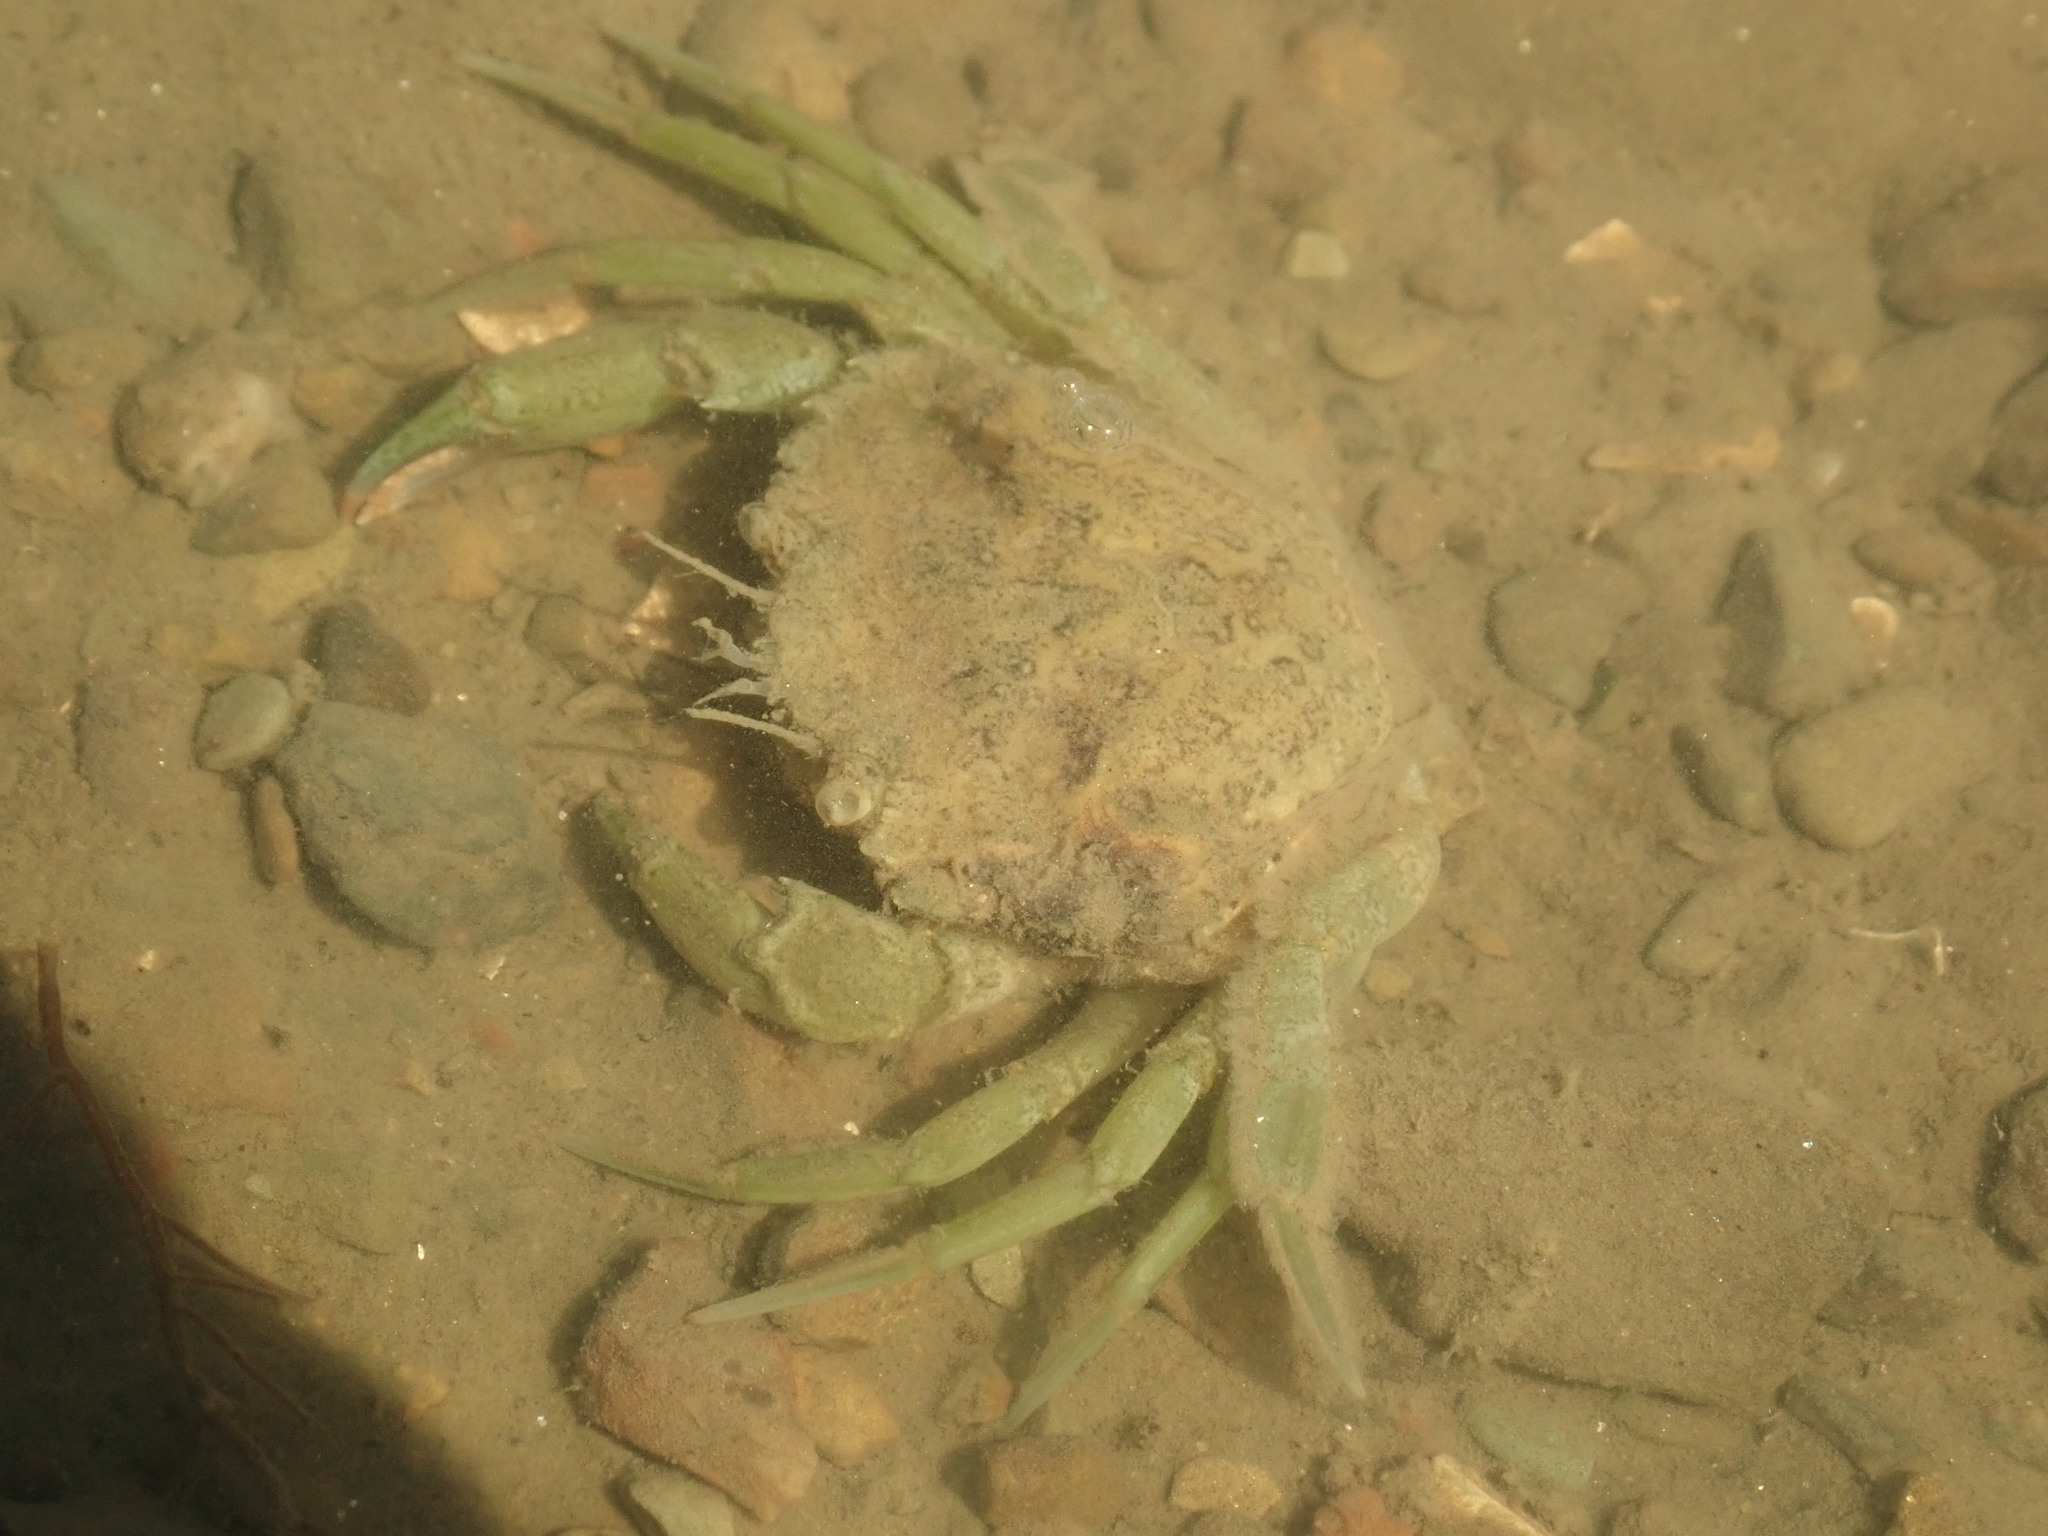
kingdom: Animalia
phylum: Arthropoda
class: Malacostraca
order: Decapoda
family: Carcinidae
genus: Carcinus
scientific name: Carcinus maenas
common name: European green crab
